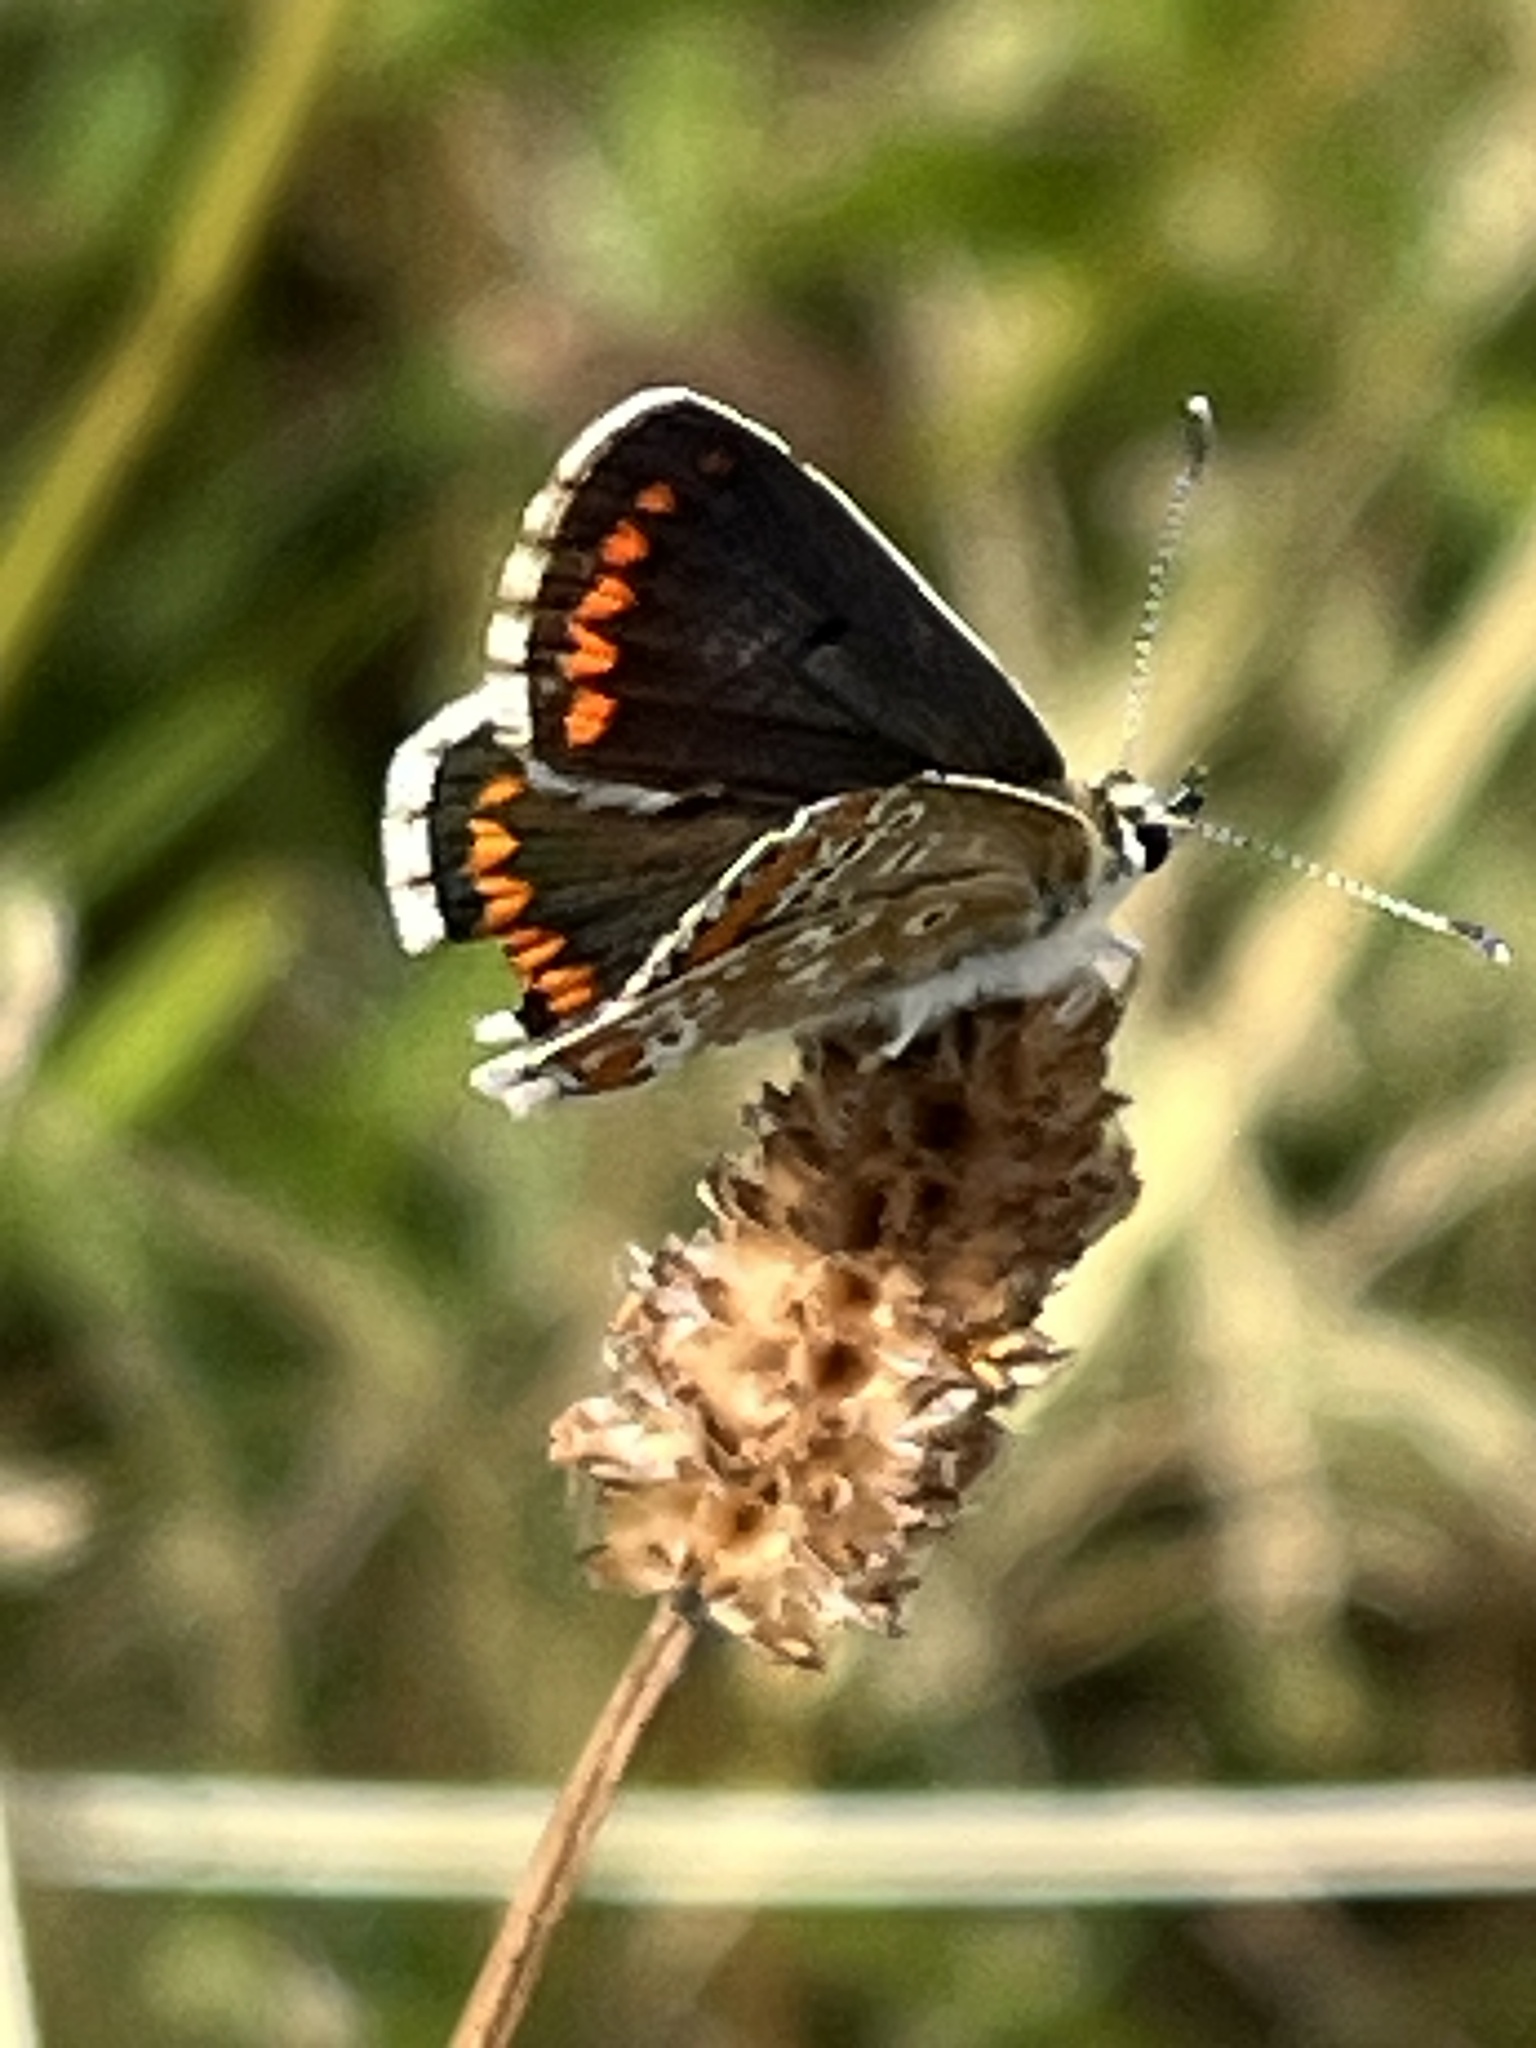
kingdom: Animalia
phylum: Arthropoda
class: Insecta
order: Lepidoptera
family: Lycaenidae
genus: Aricia
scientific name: Aricia agestis
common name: Brown argus
